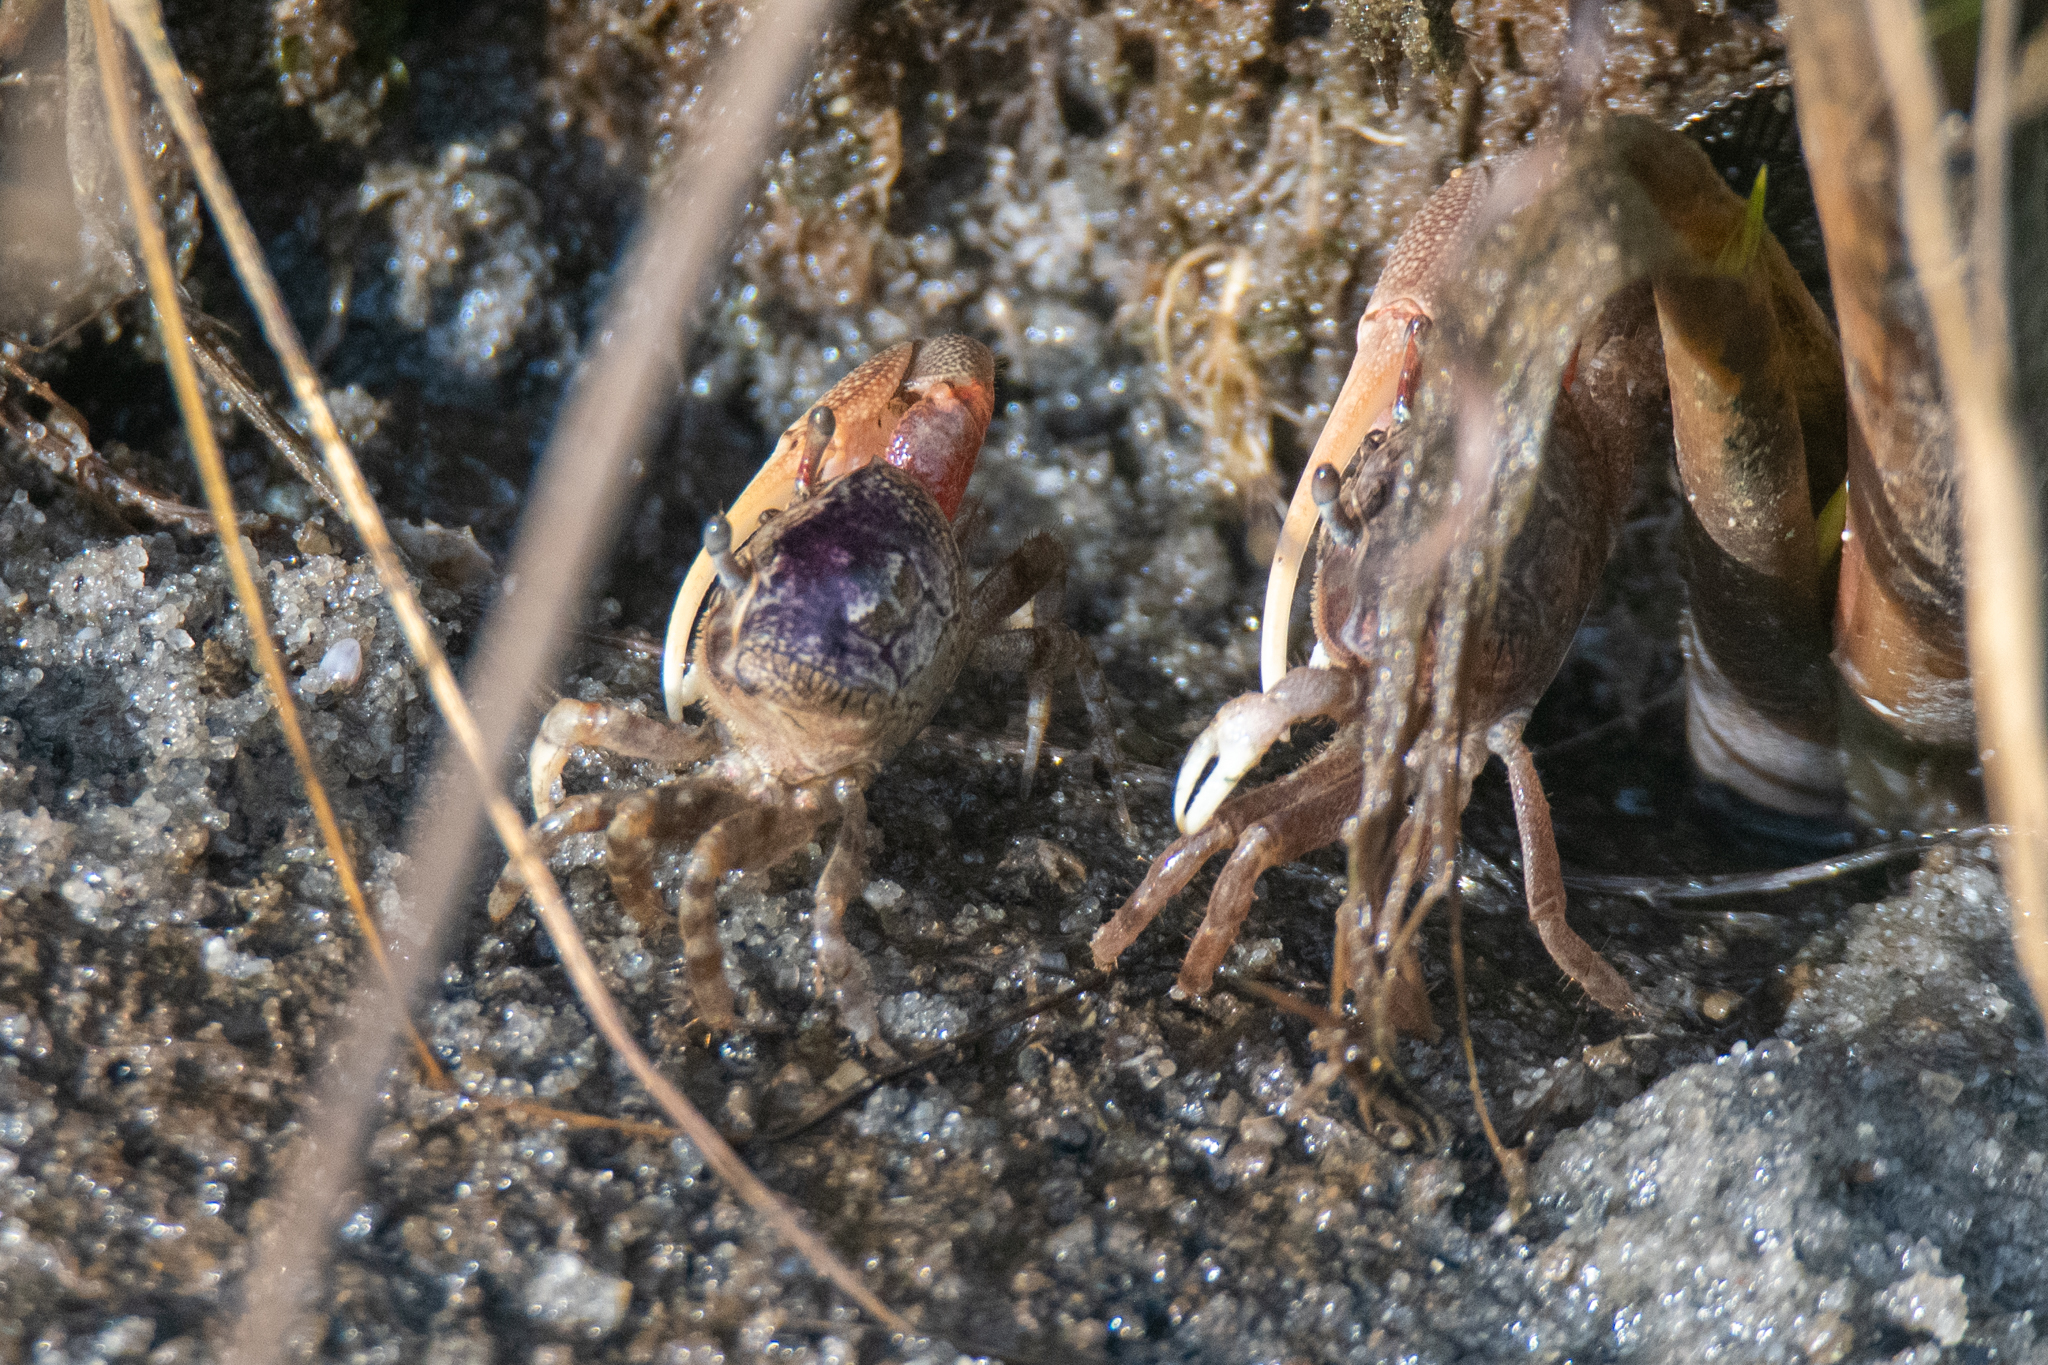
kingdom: Animalia
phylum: Arthropoda
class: Malacostraca
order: Decapoda
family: Ocypodidae
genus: Leptuca
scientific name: Leptuca pugilator
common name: Atlantic sand fiddler crab
